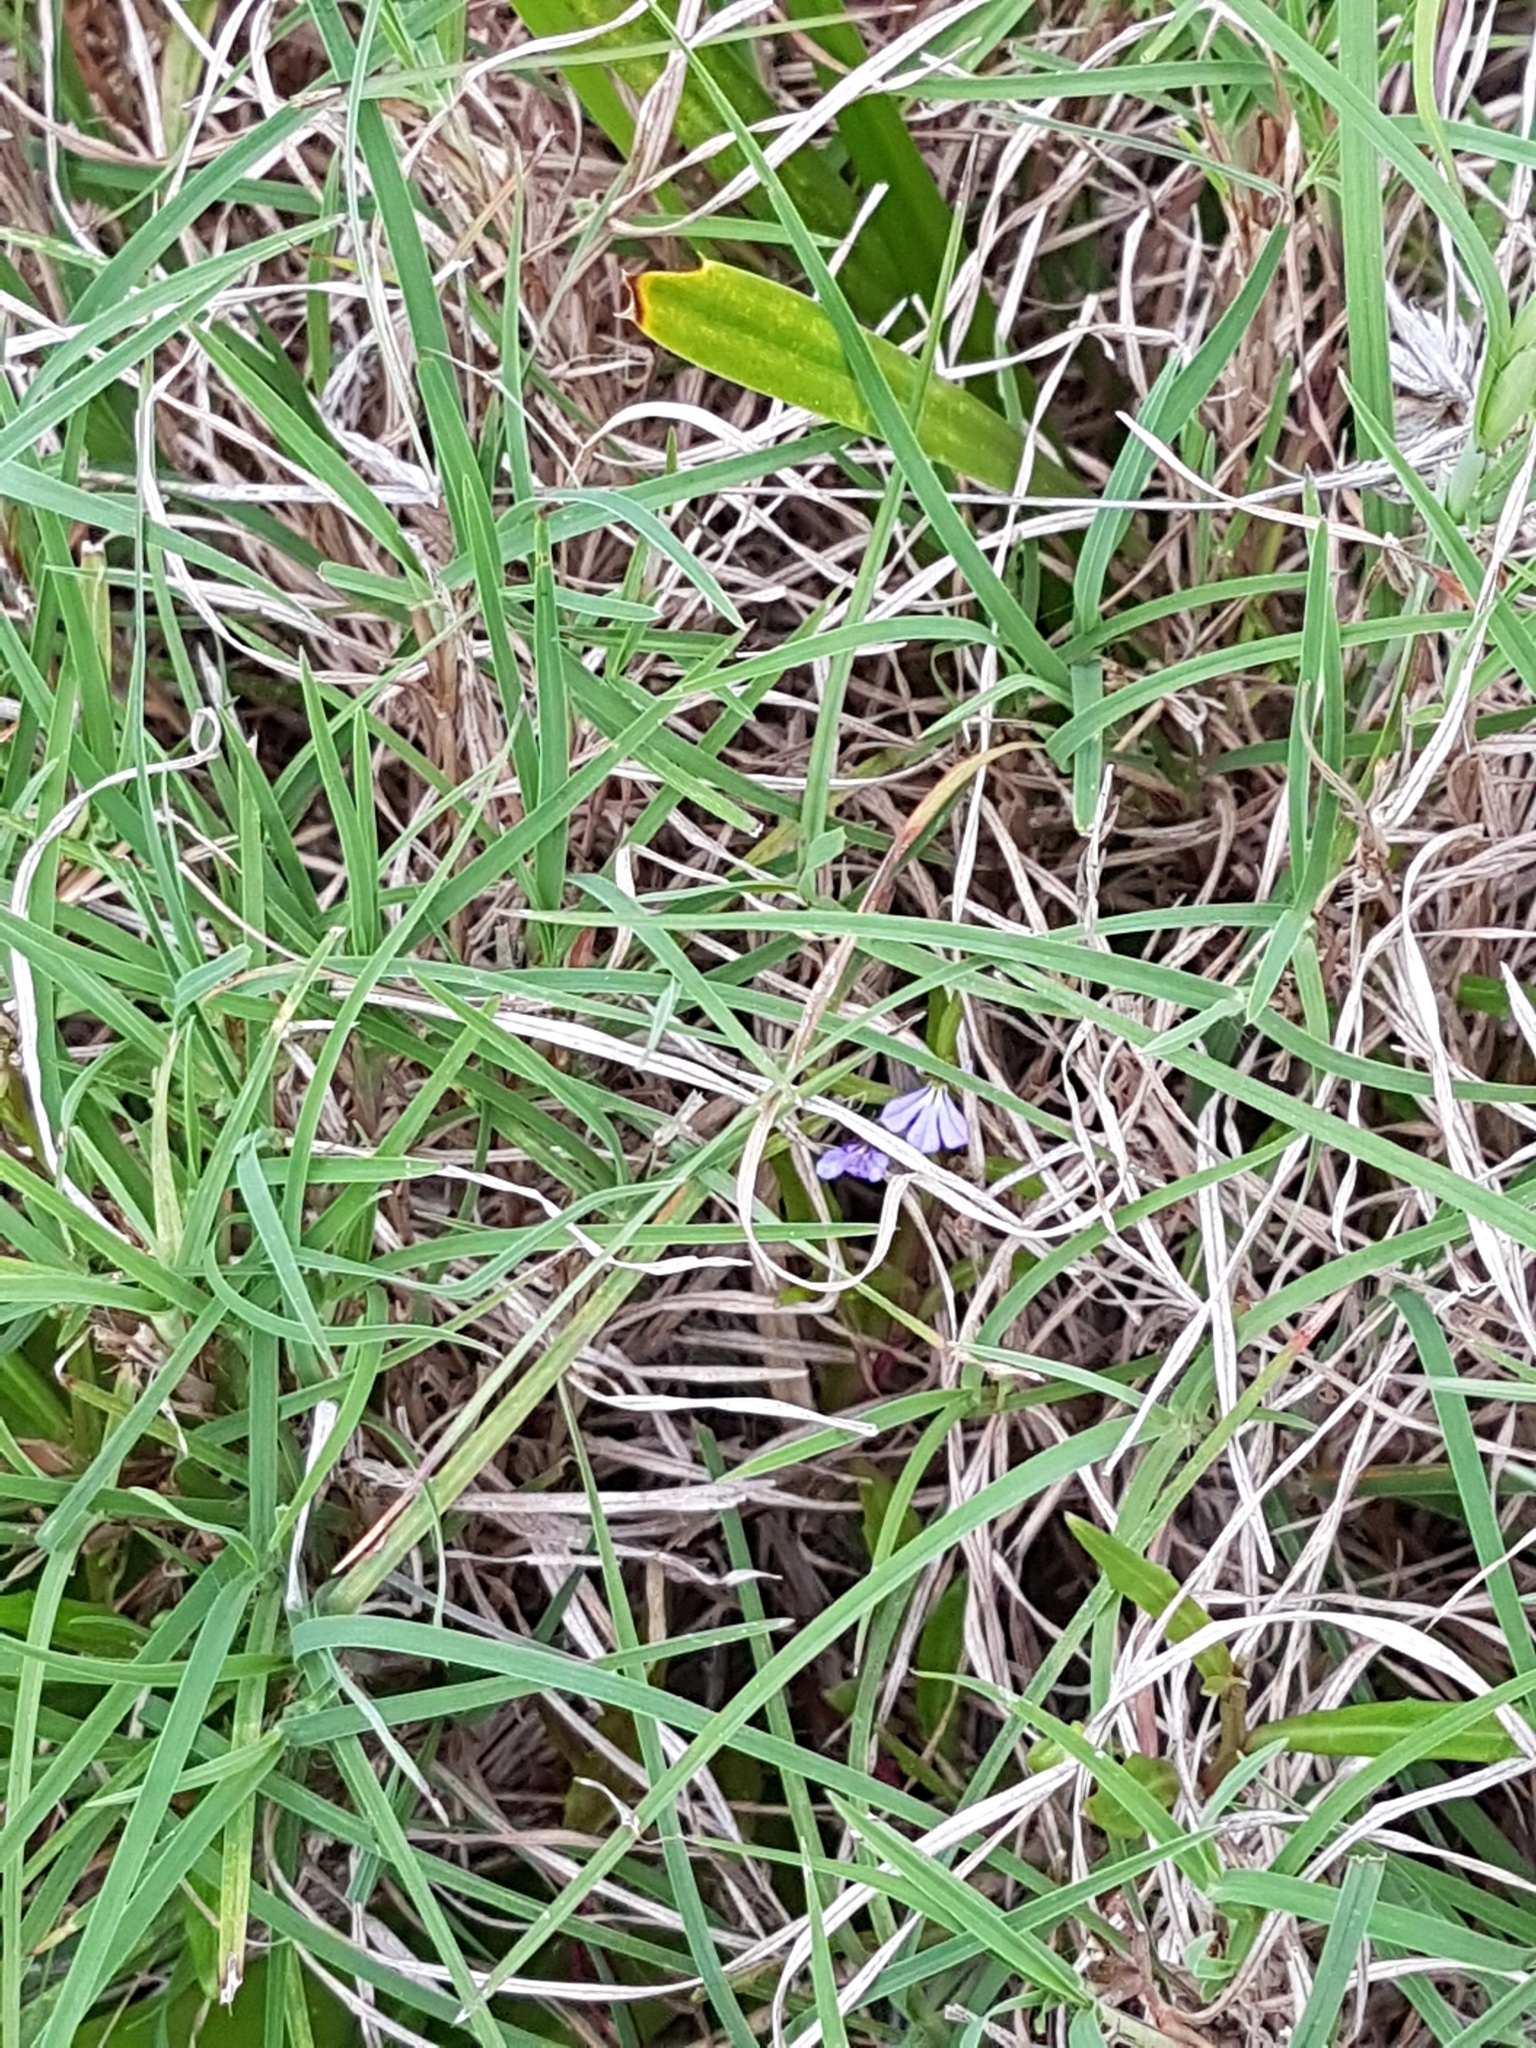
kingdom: Plantae
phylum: Tracheophyta
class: Magnoliopsida
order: Asterales
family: Campanulaceae
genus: Lobelia
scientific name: Lobelia anceps
